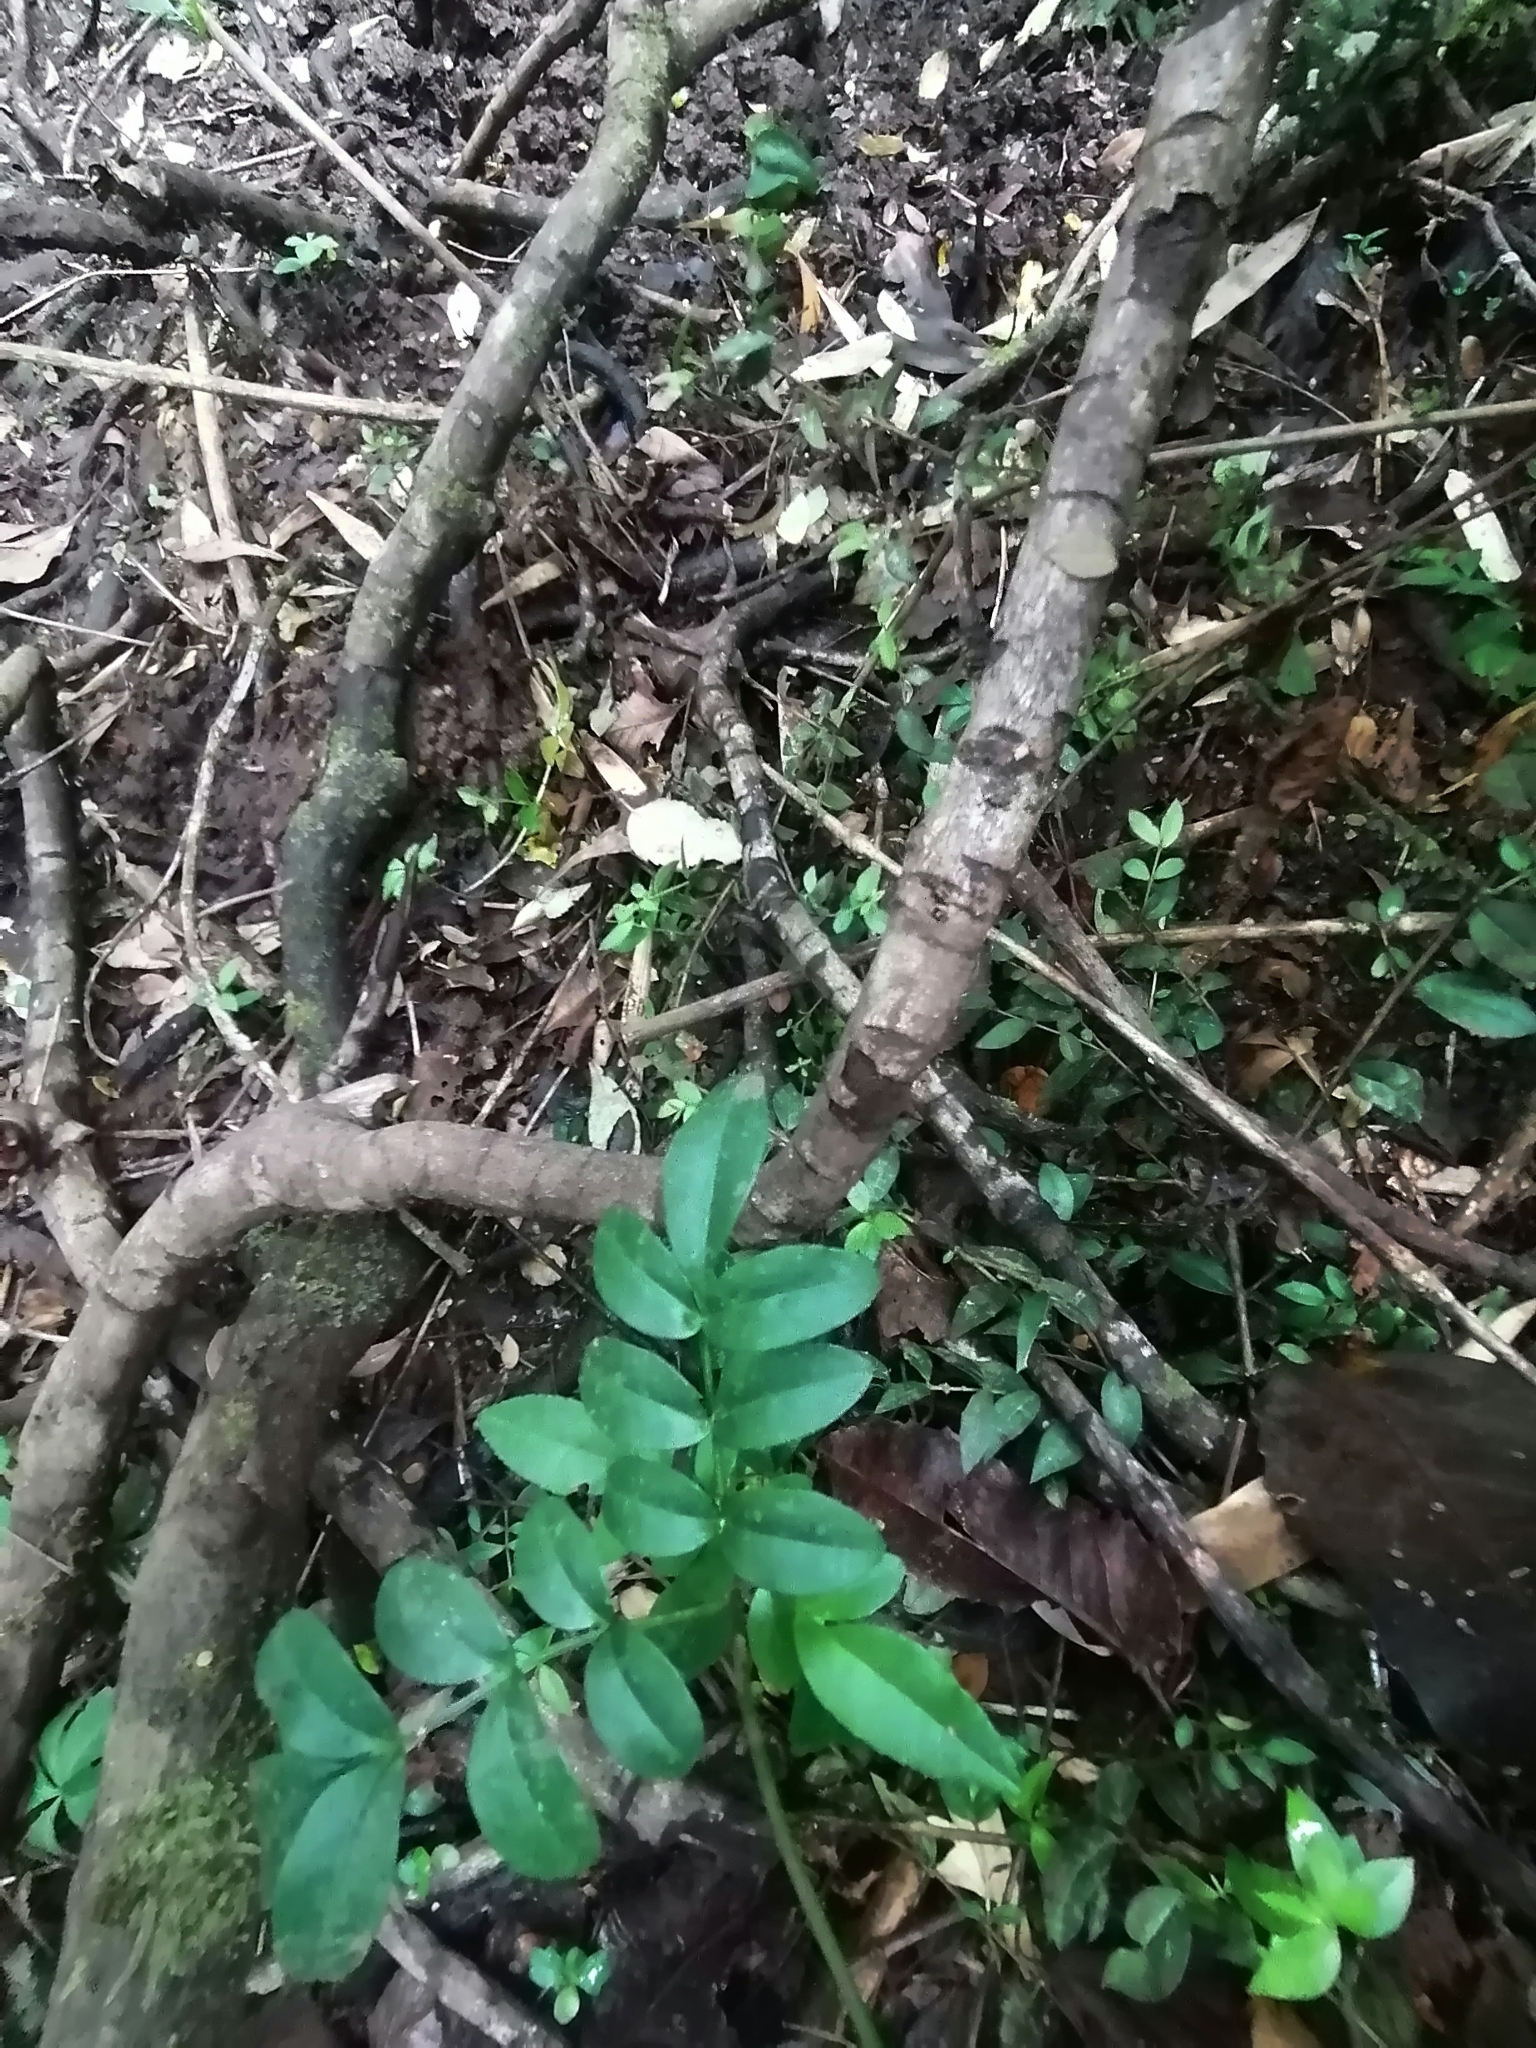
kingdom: Plantae
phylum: Tracheophyta
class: Magnoliopsida
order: Lamiales
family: Bignoniaceae
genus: Campsidium
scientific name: Campsidium valdivianum
